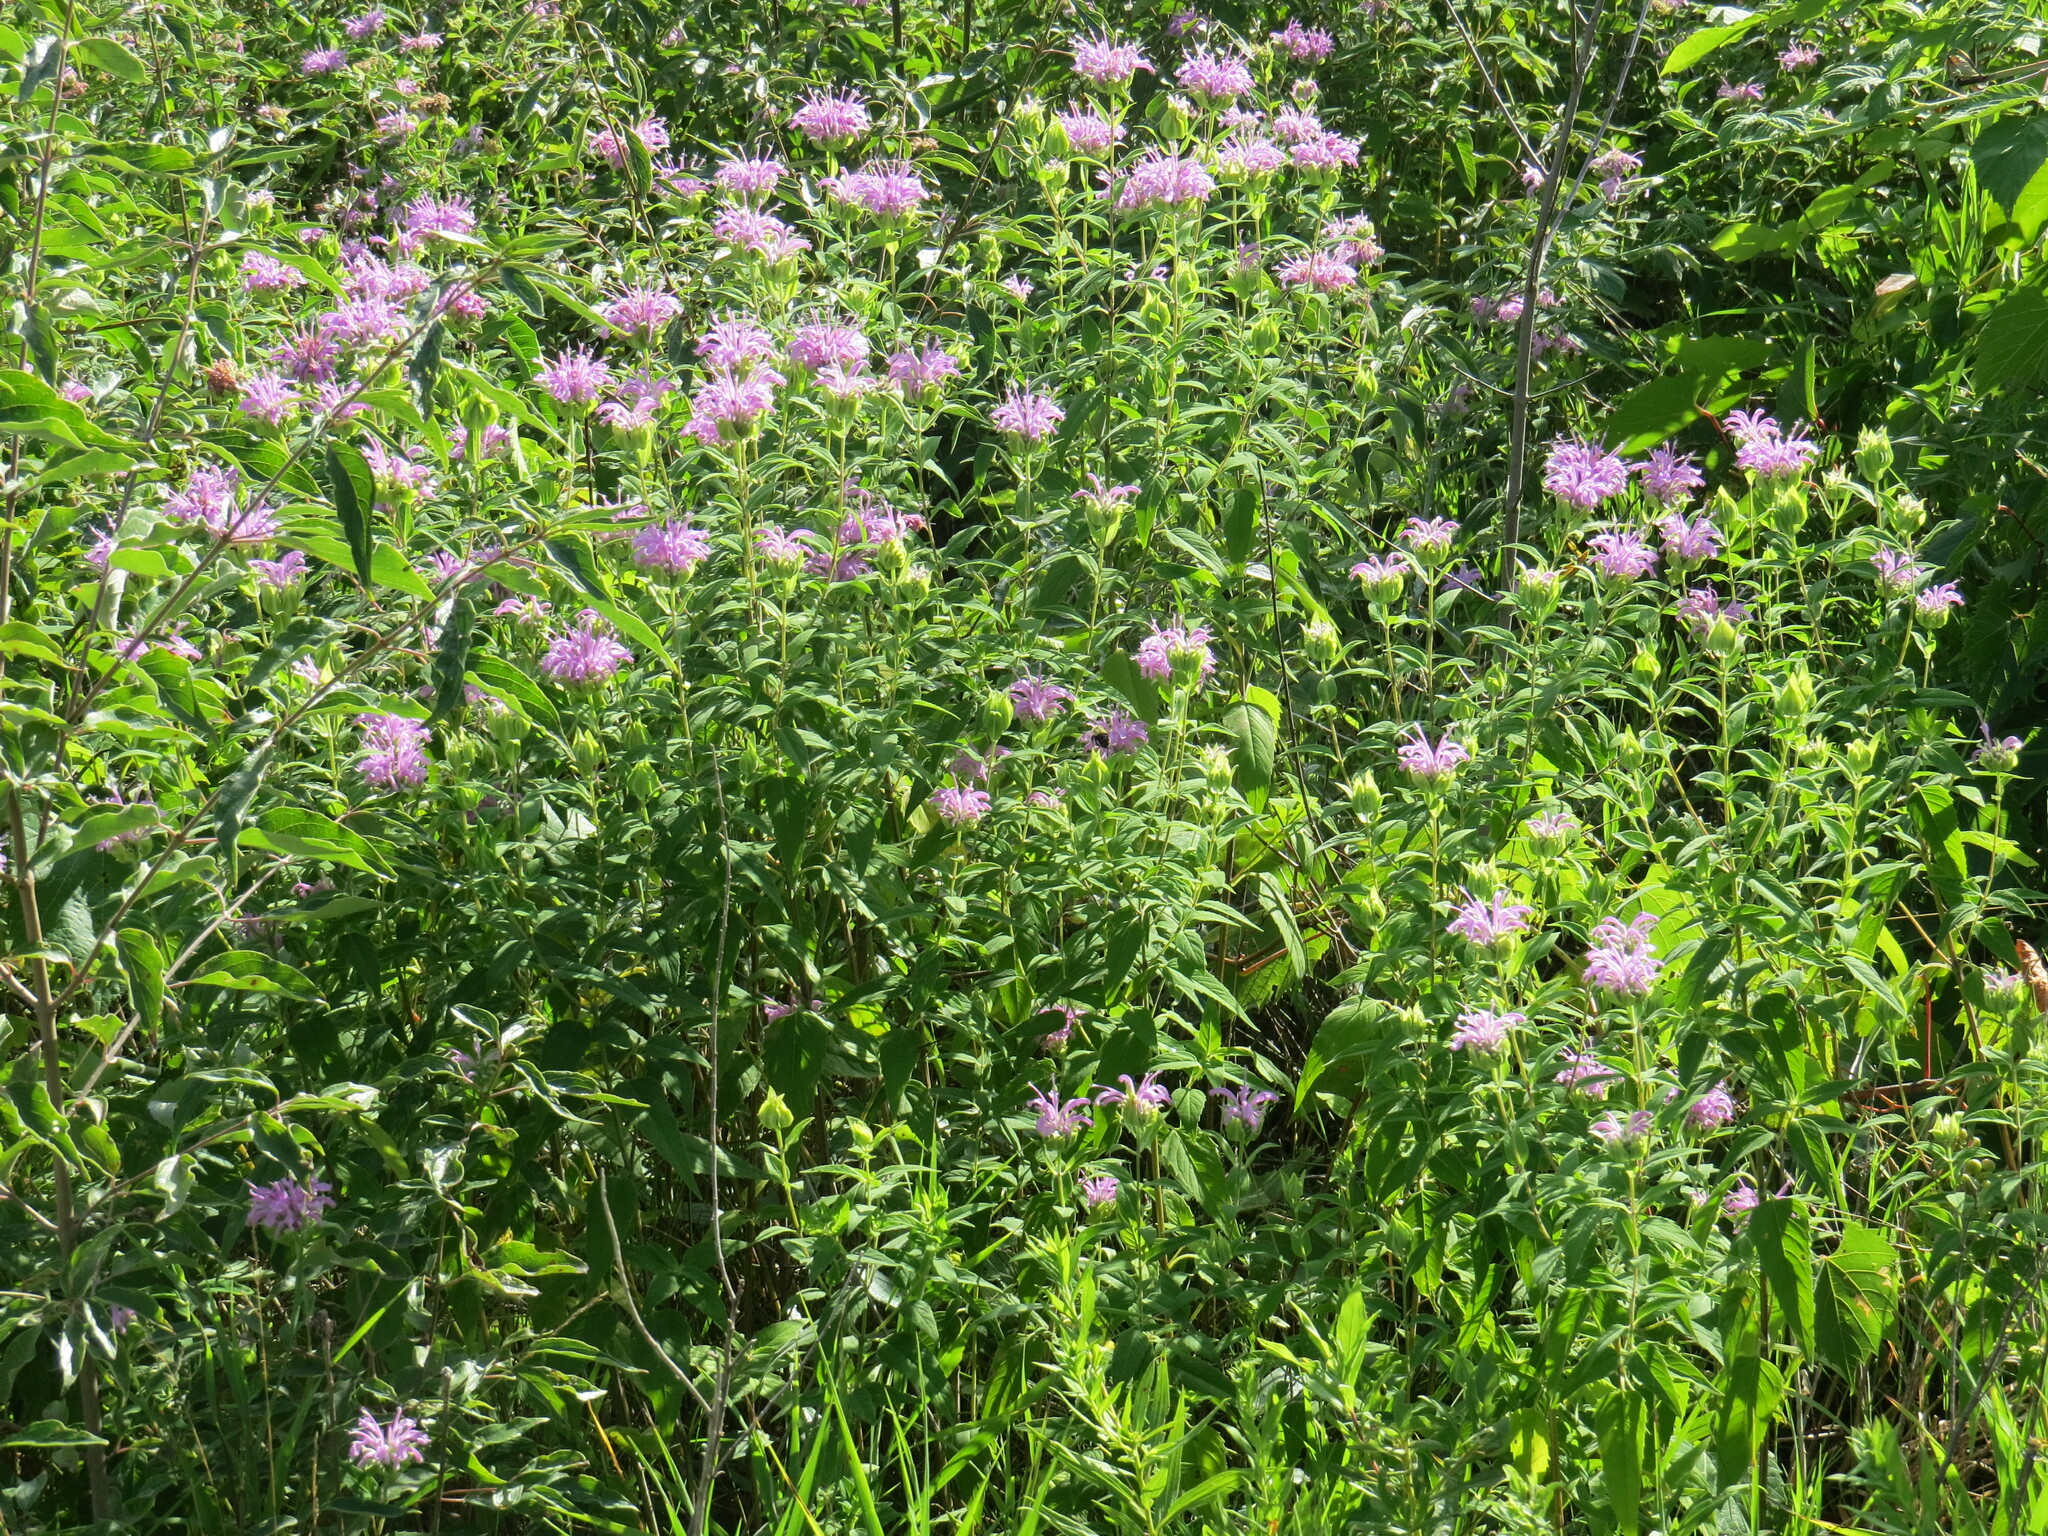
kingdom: Plantae
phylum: Tracheophyta
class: Magnoliopsida
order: Lamiales
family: Lamiaceae
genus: Monarda
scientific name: Monarda fistulosa
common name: Purple beebalm
